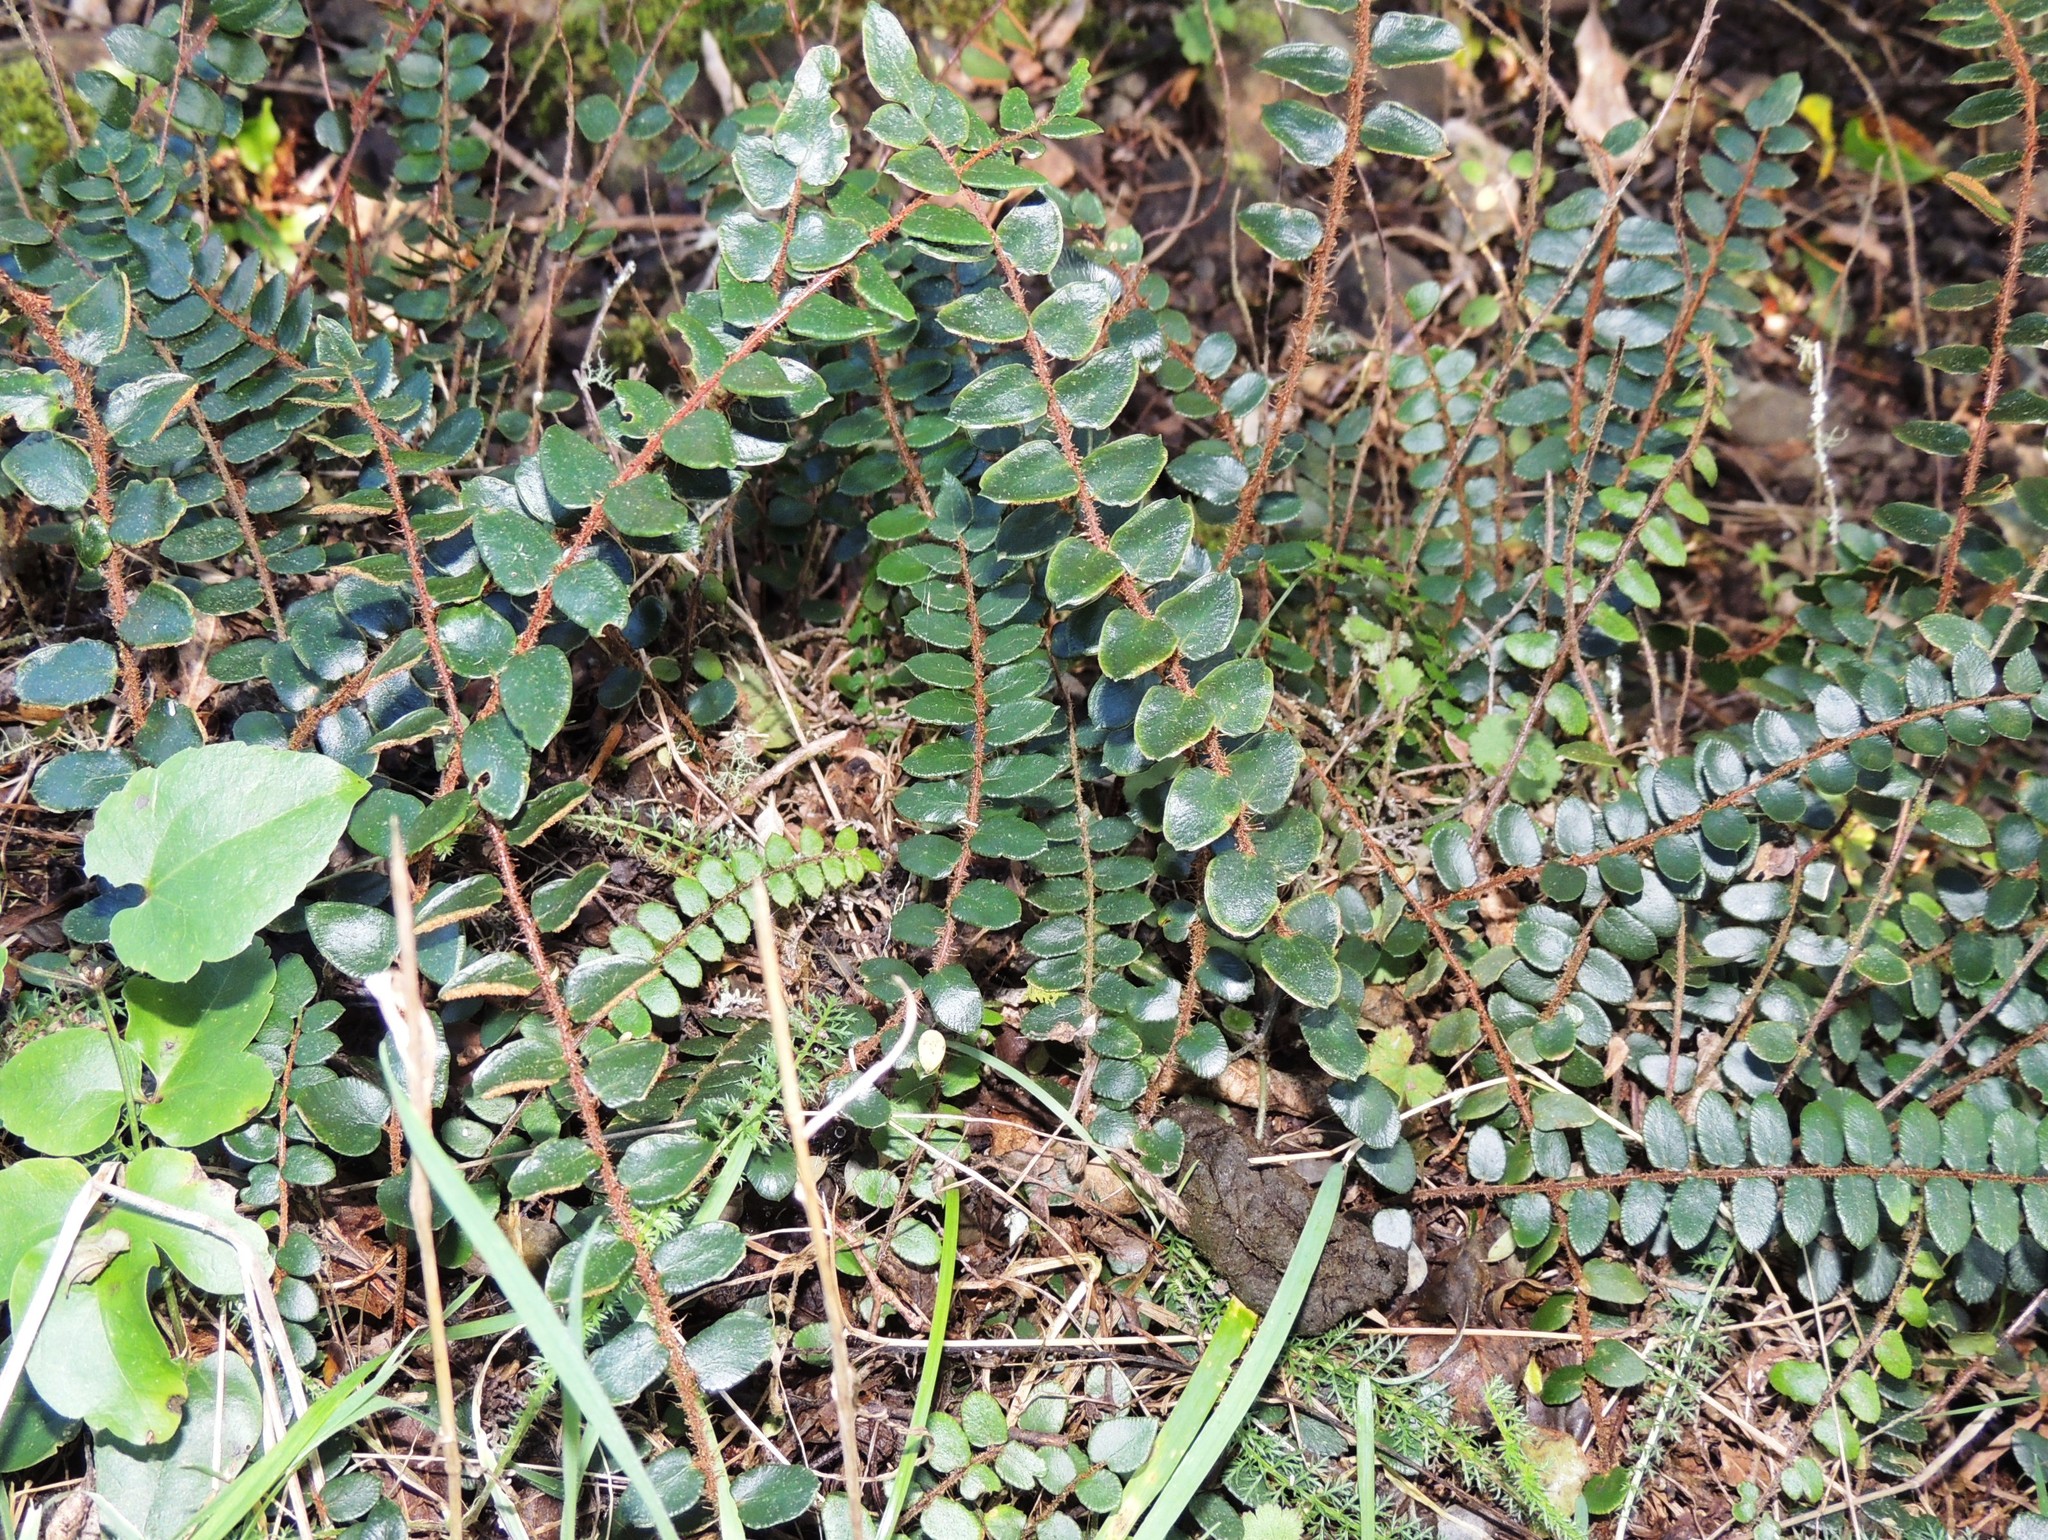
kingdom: Plantae
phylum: Tracheophyta
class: Polypodiopsida
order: Polypodiales
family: Pteridaceae
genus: Pellaea
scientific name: Pellaea rotundifolia
